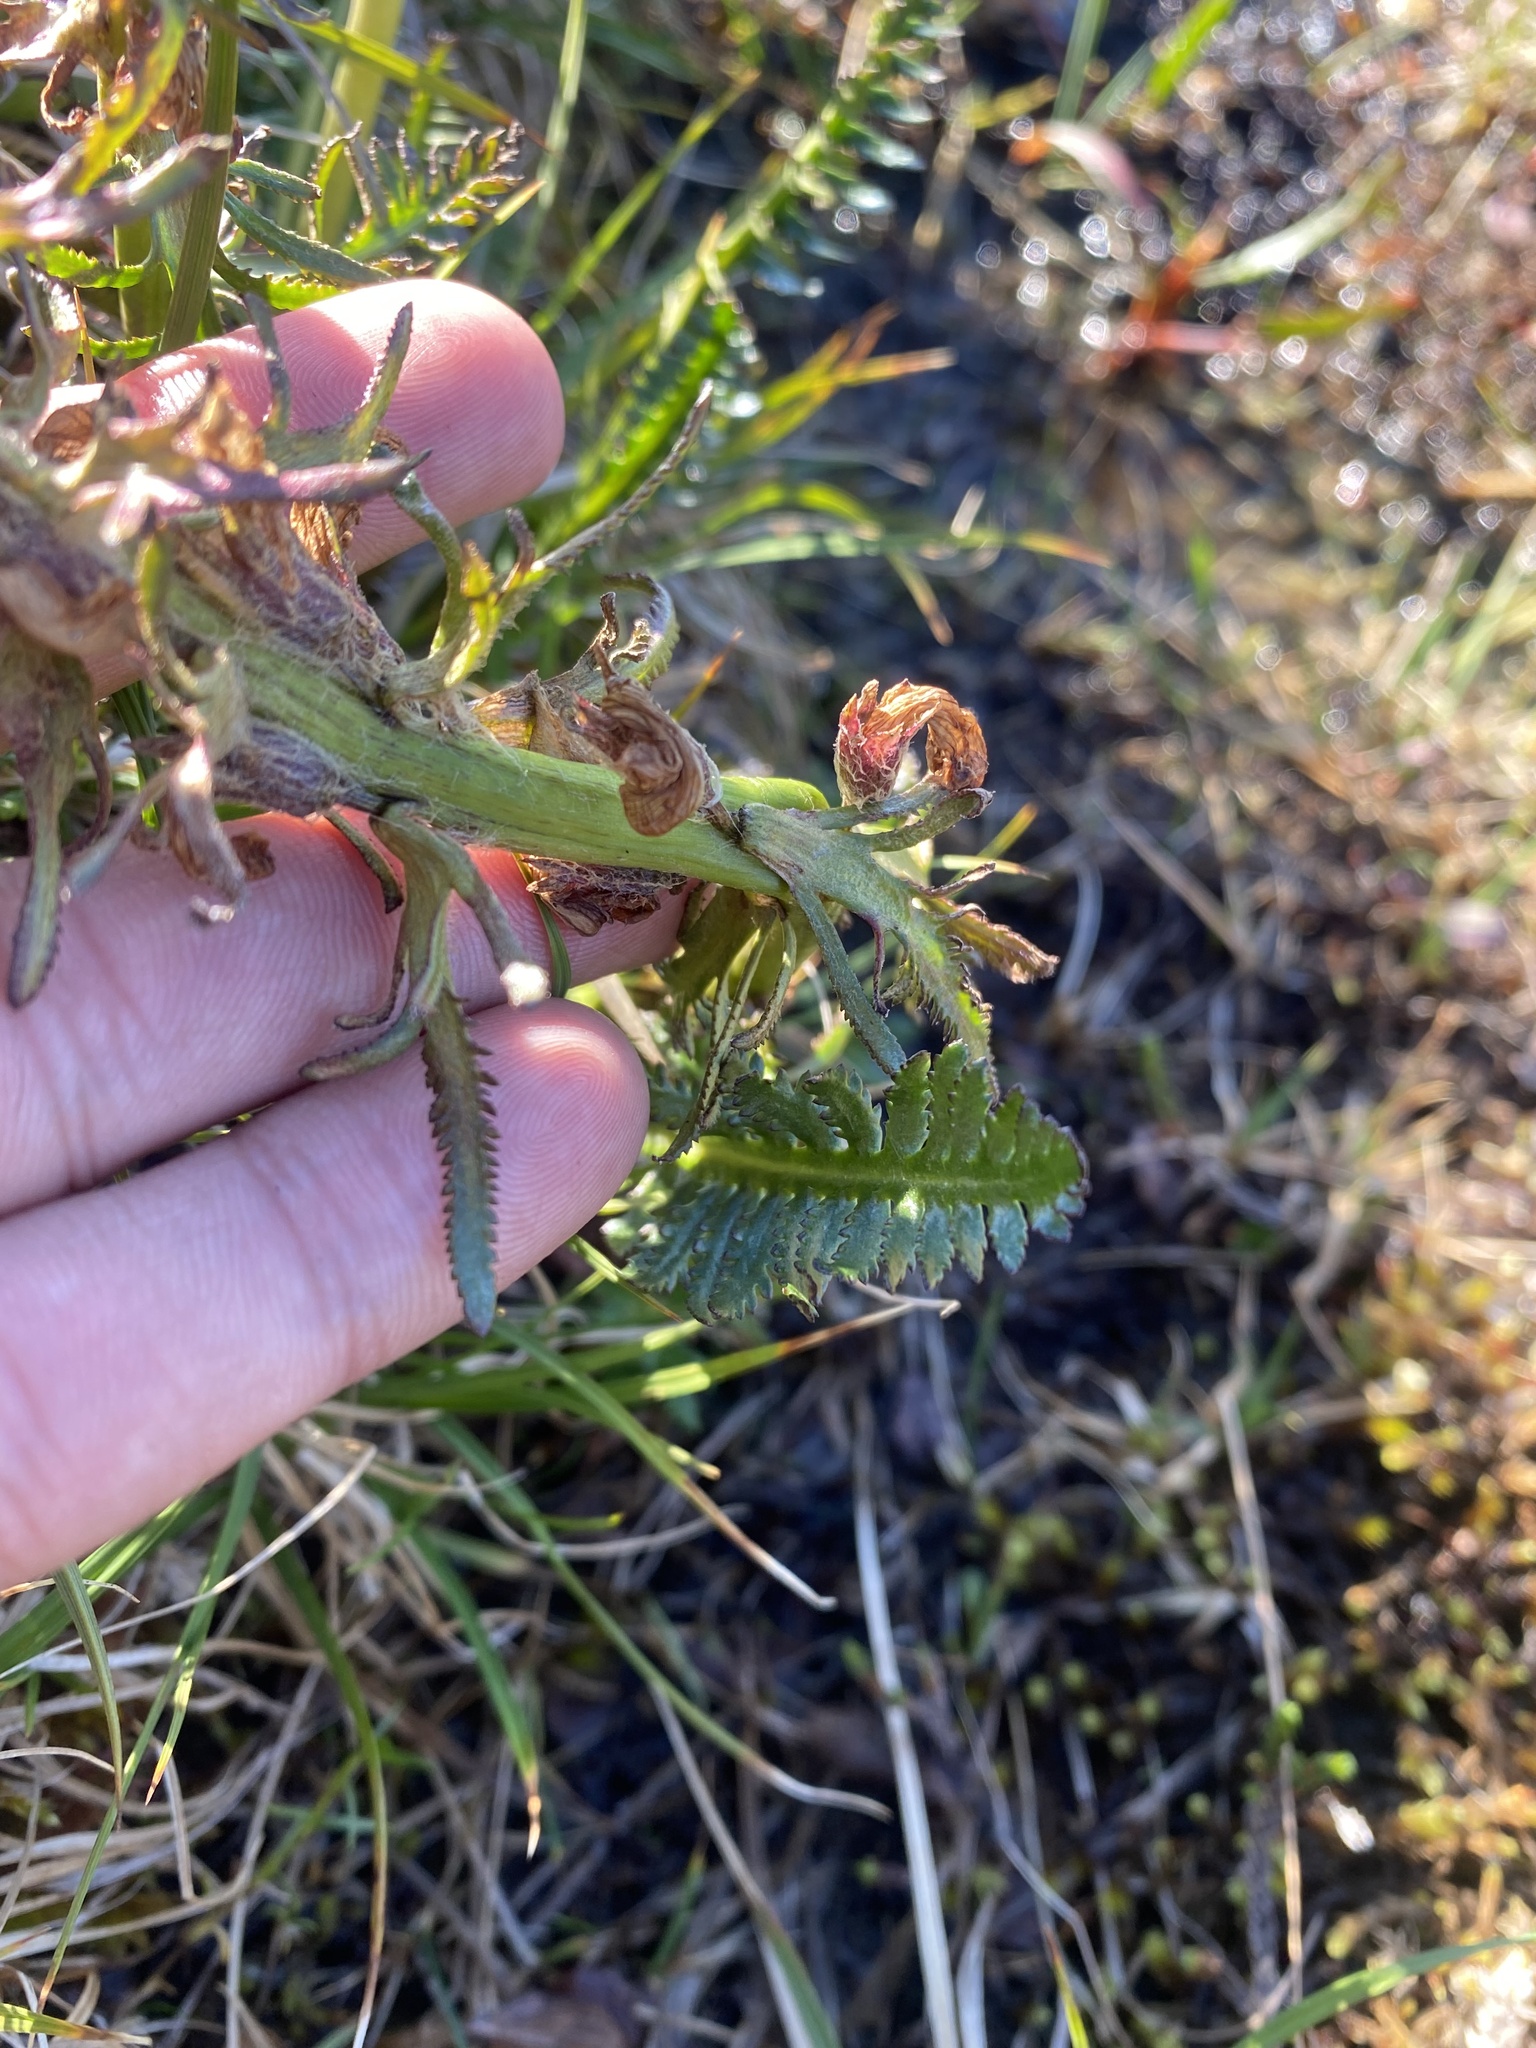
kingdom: Plantae
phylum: Tracheophyta
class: Magnoliopsida
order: Lamiales
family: Orobanchaceae
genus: Pedicularis
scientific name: Pedicularis novaiae-zemliae
